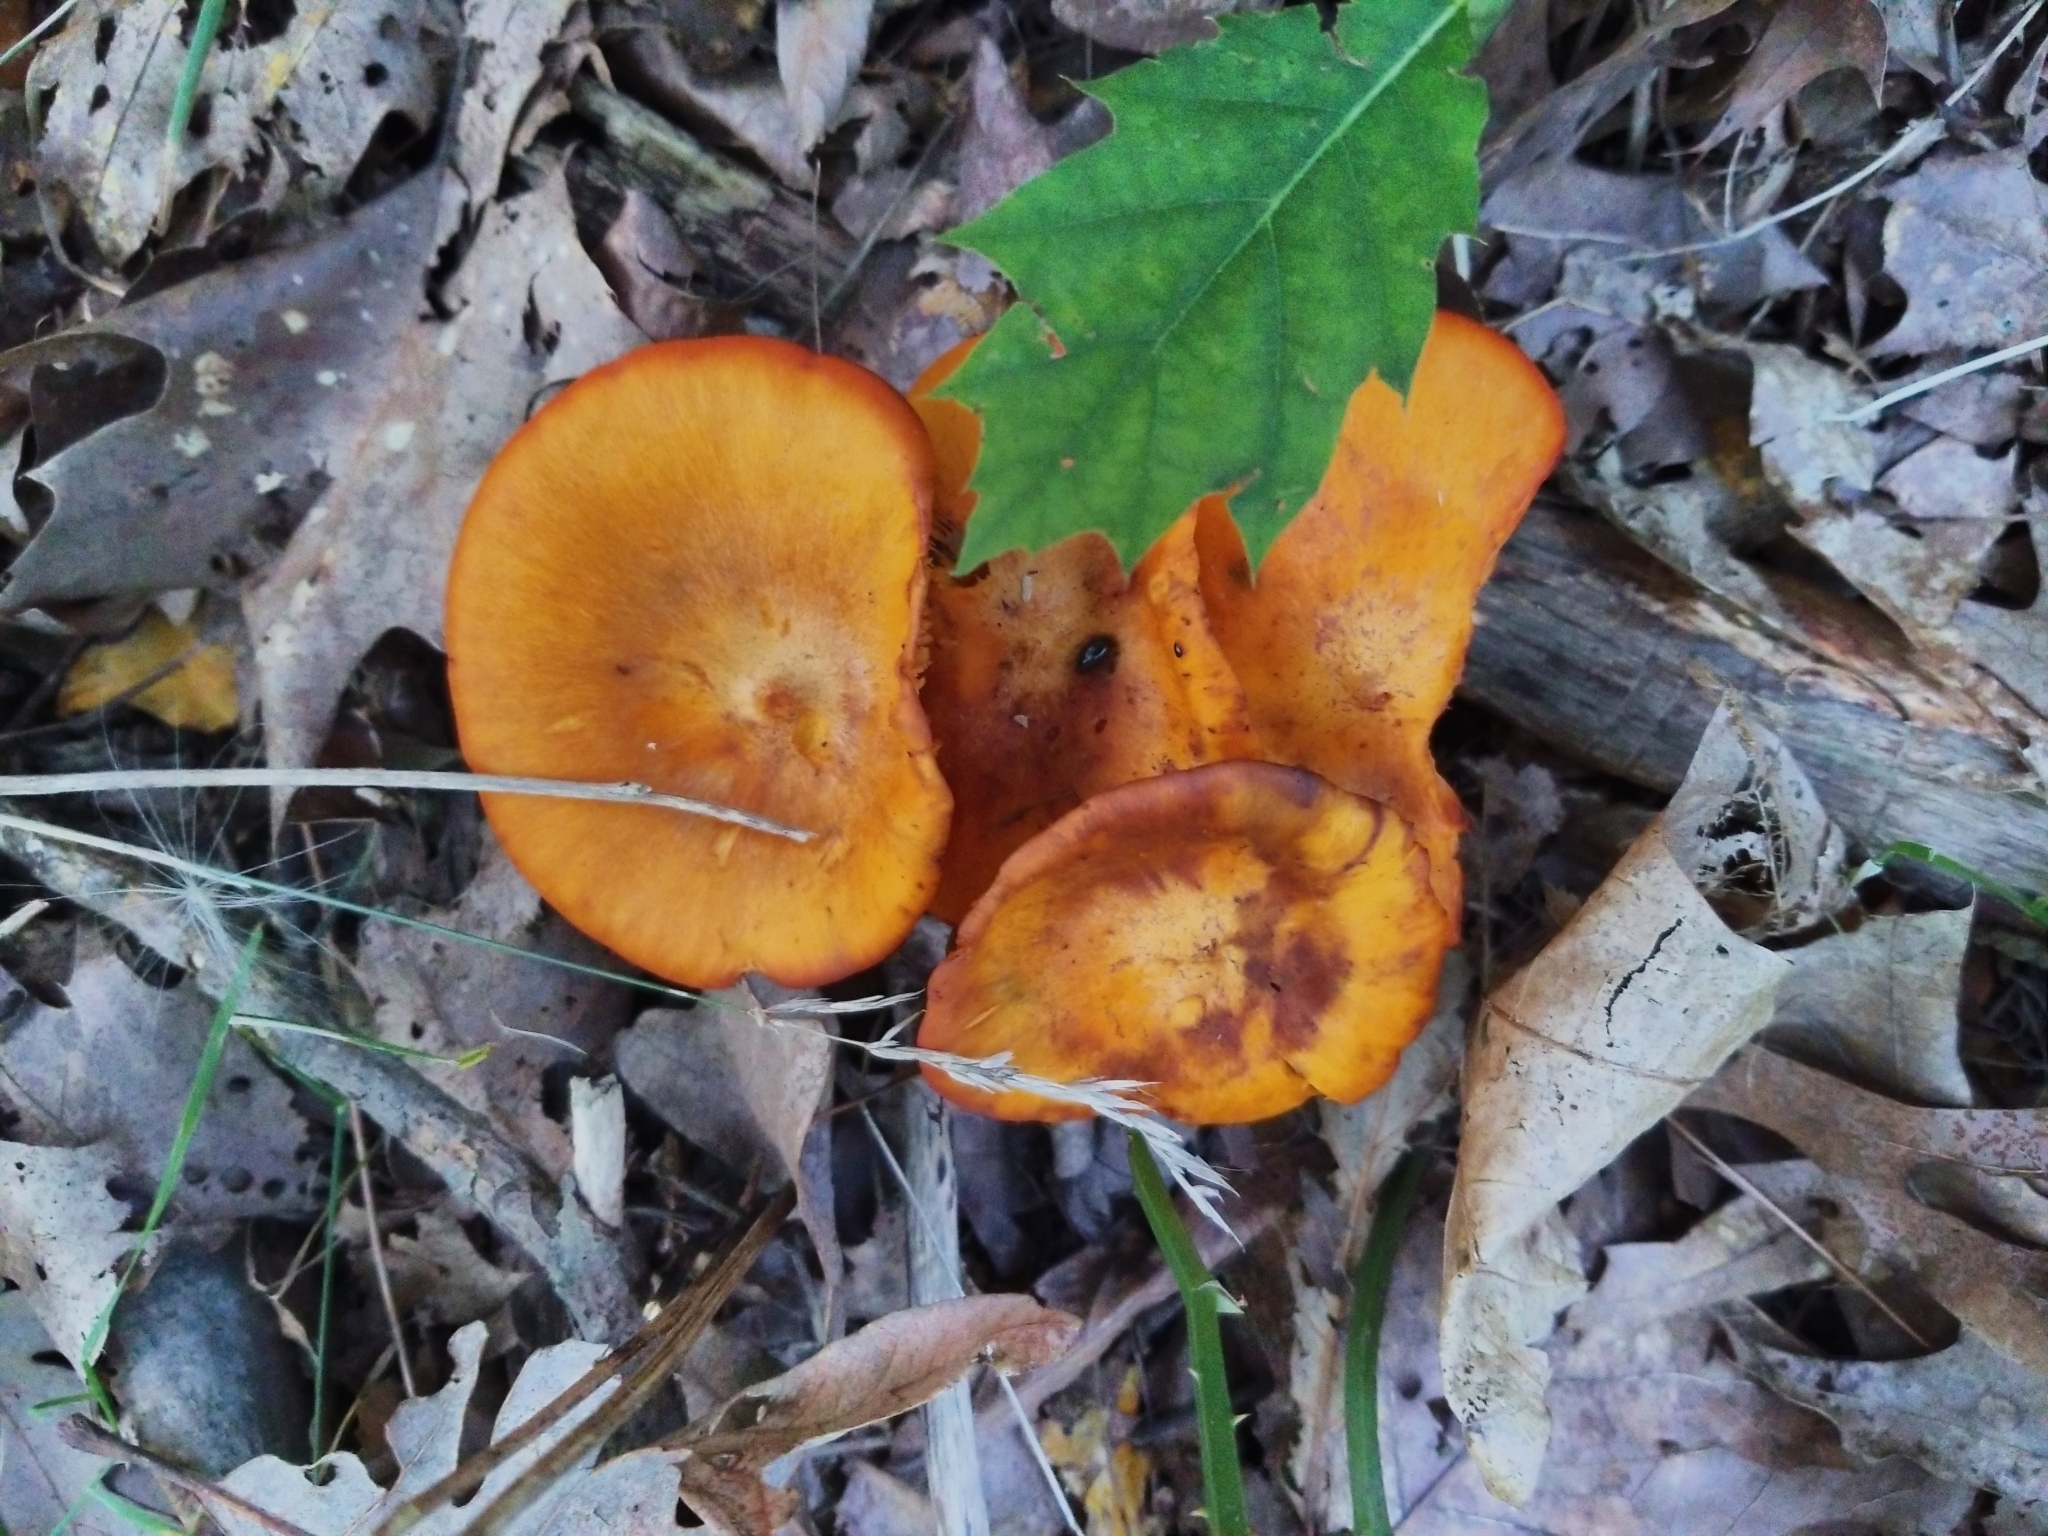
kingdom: Fungi
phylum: Basidiomycota
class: Agaricomycetes
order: Agaricales
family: Omphalotaceae
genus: Omphalotus
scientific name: Omphalotus illudens
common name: Jack o lantern
